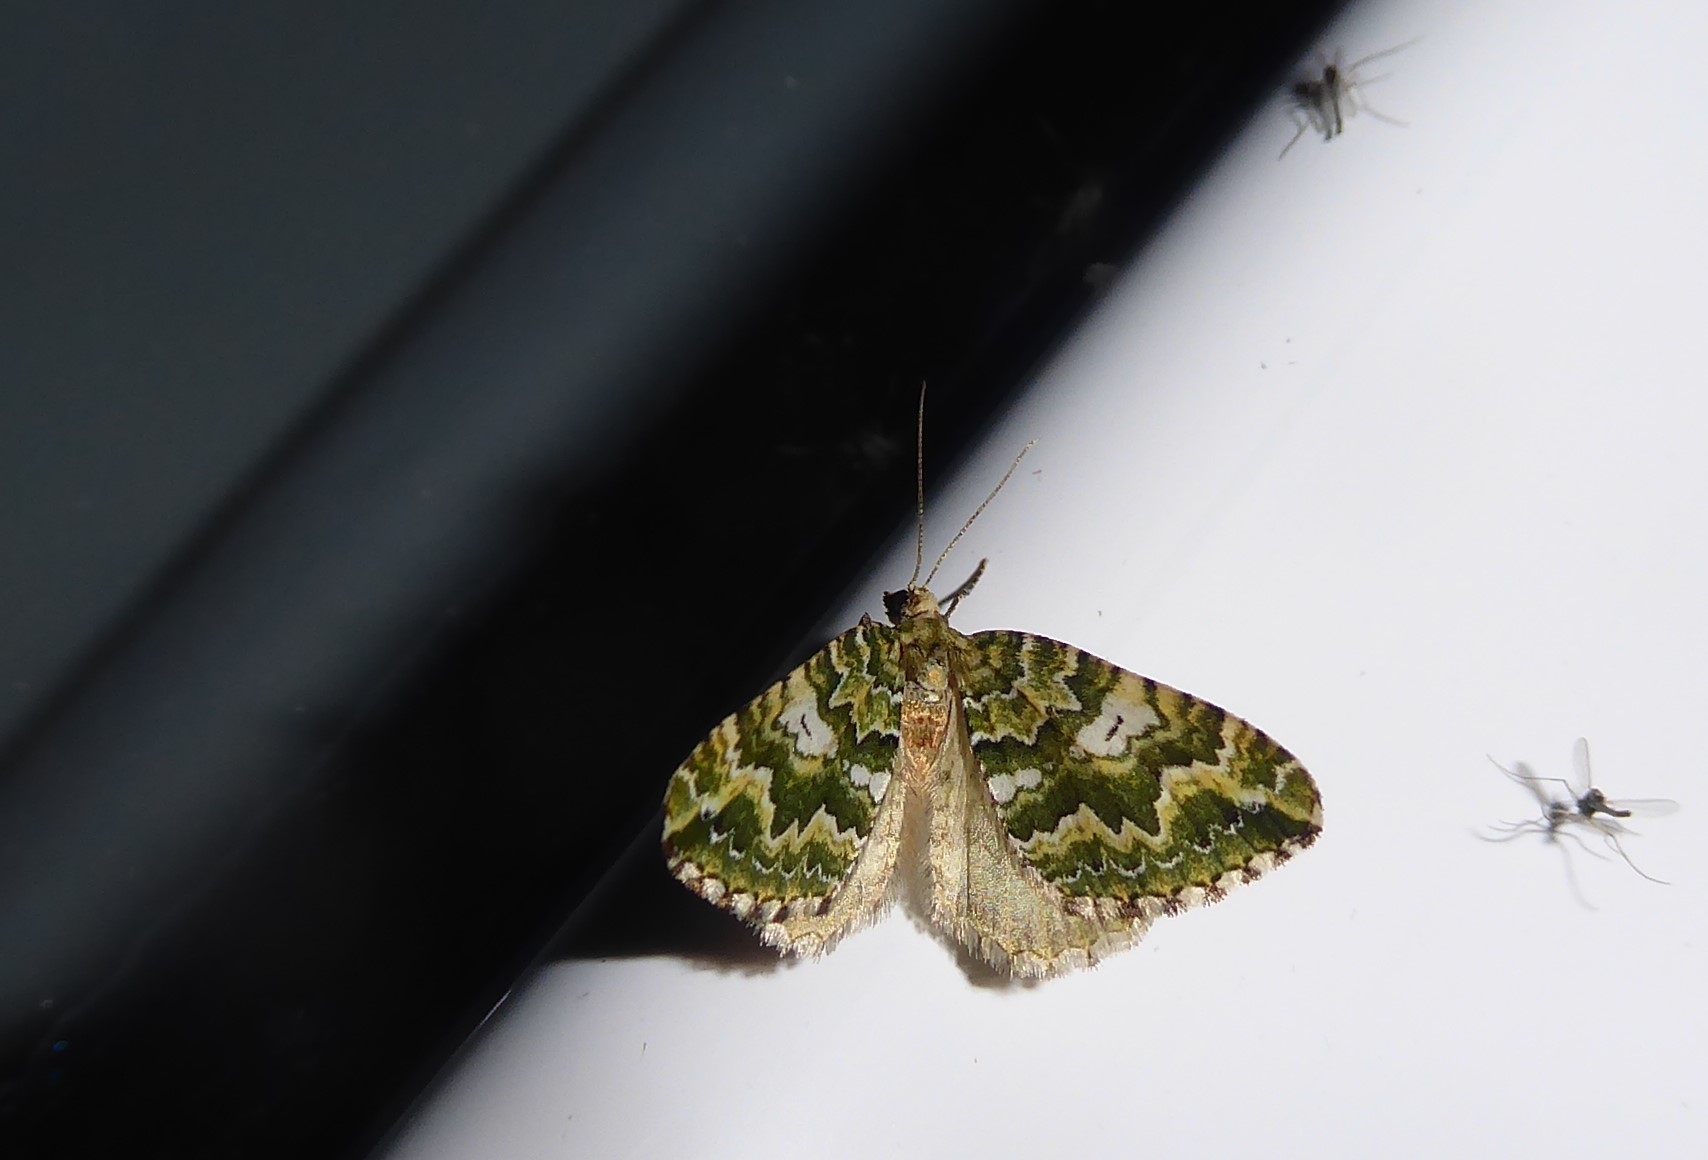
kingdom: Animalia
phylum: Arthropoda
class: Insecta
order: Lepidoptera
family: Geometridae
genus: Asaphodes
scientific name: Asaphodes beata
